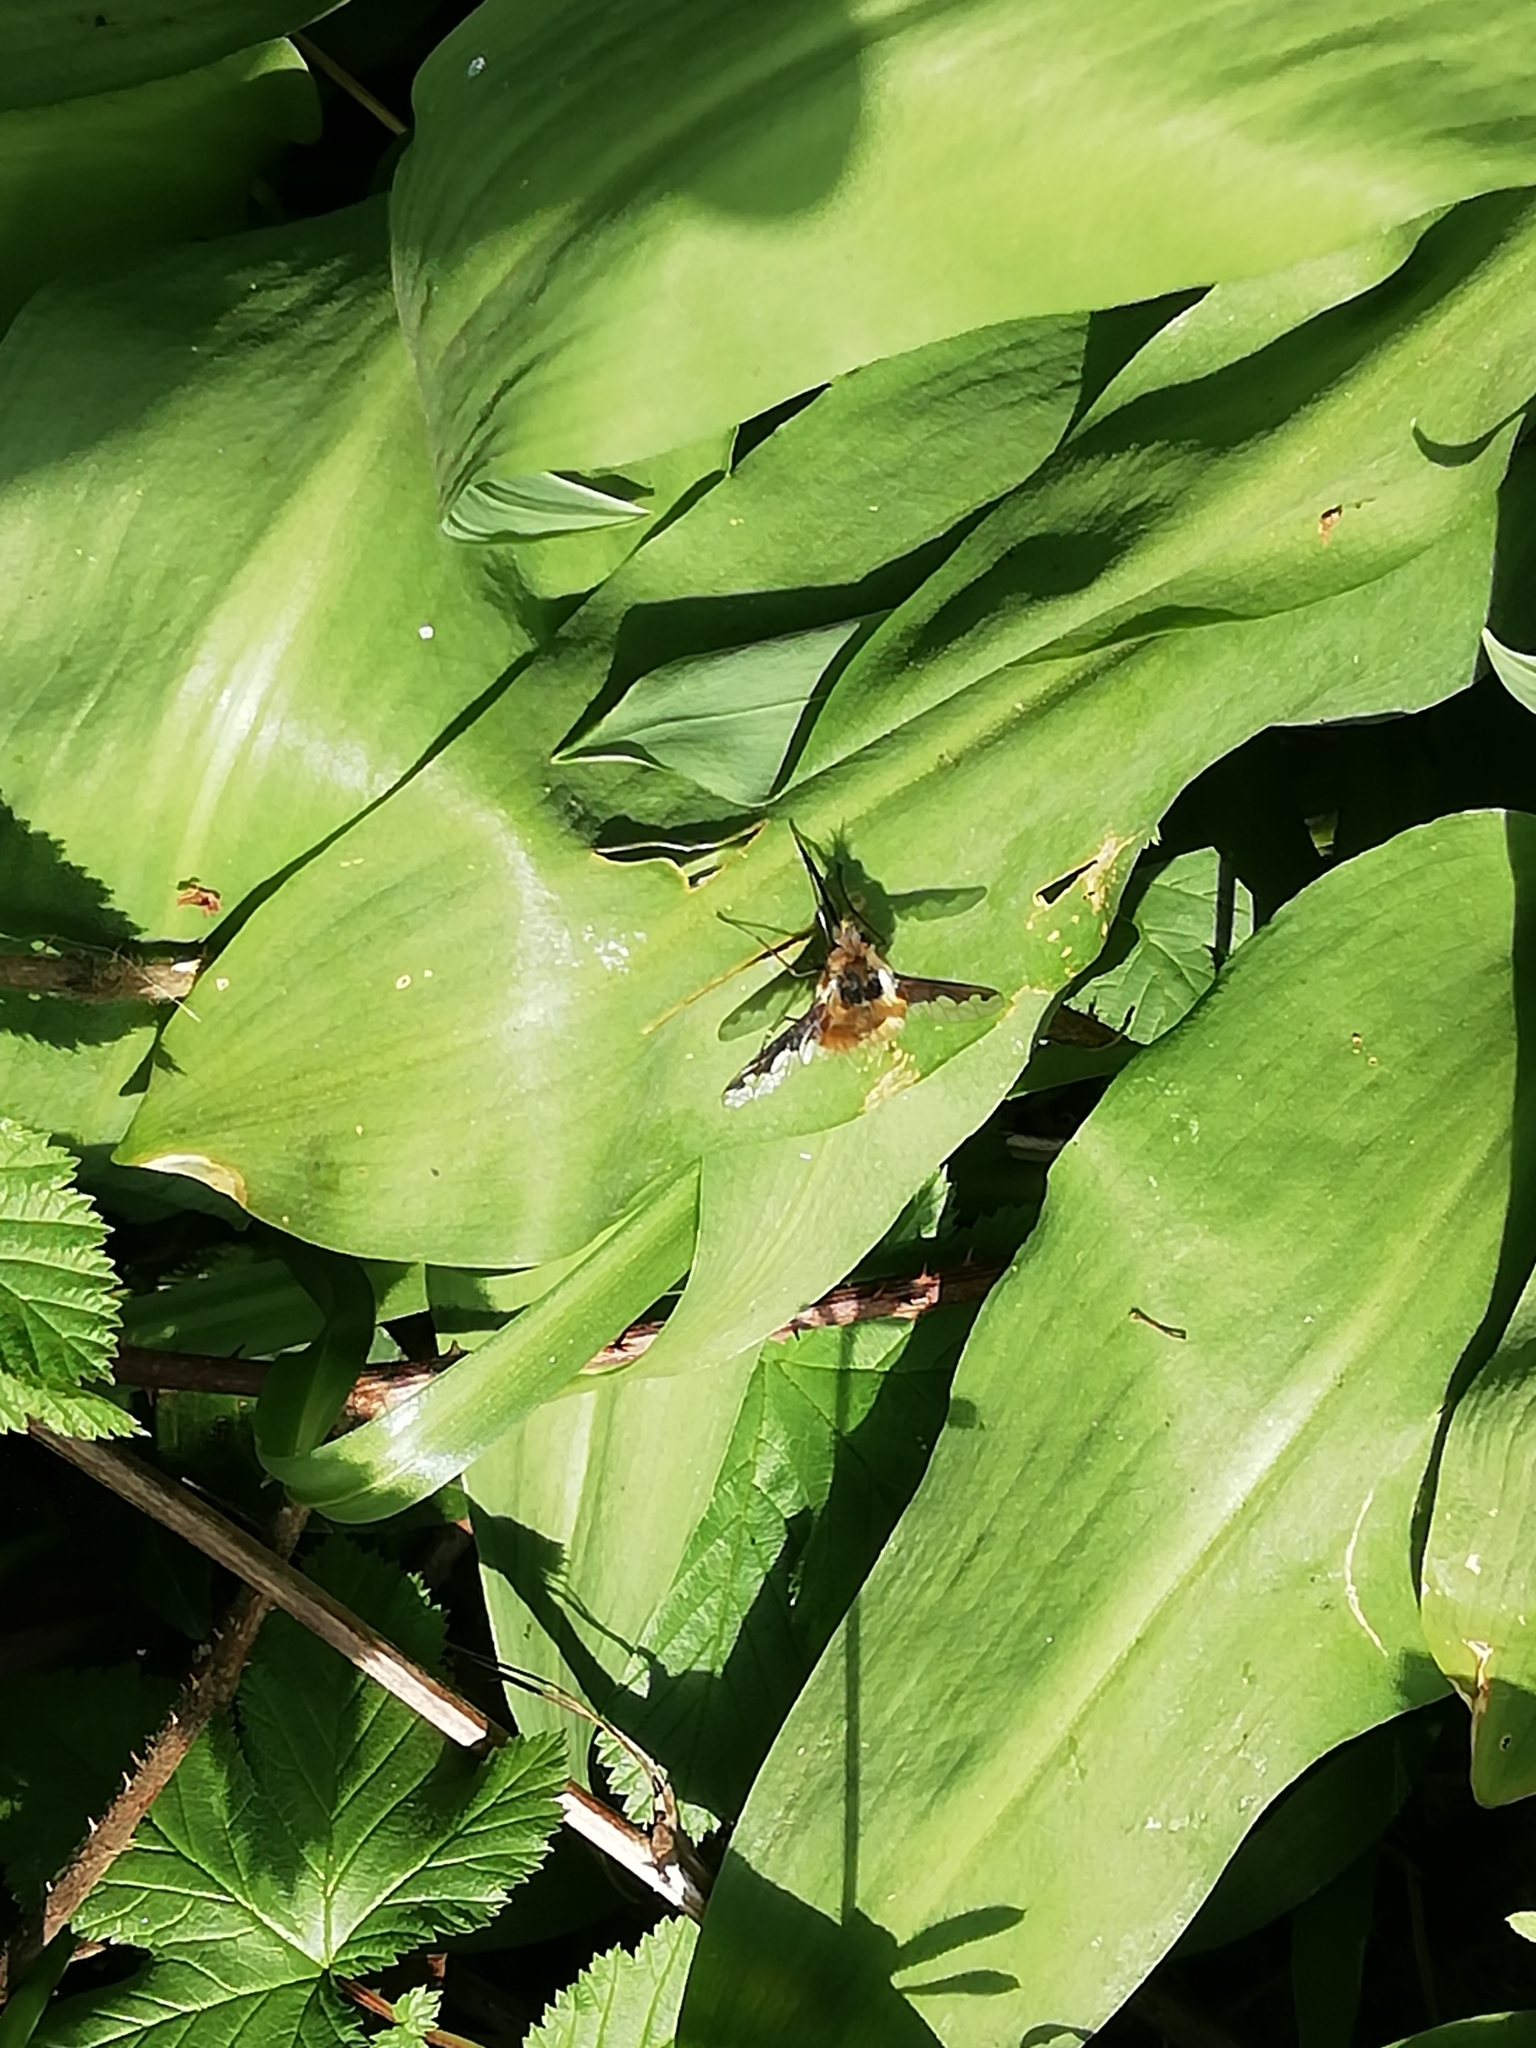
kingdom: Animalia
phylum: Arthropoda
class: Insecta
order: Diptera
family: Bombyliidae
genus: Bombylius
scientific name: Bombylius major
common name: Bee fly
